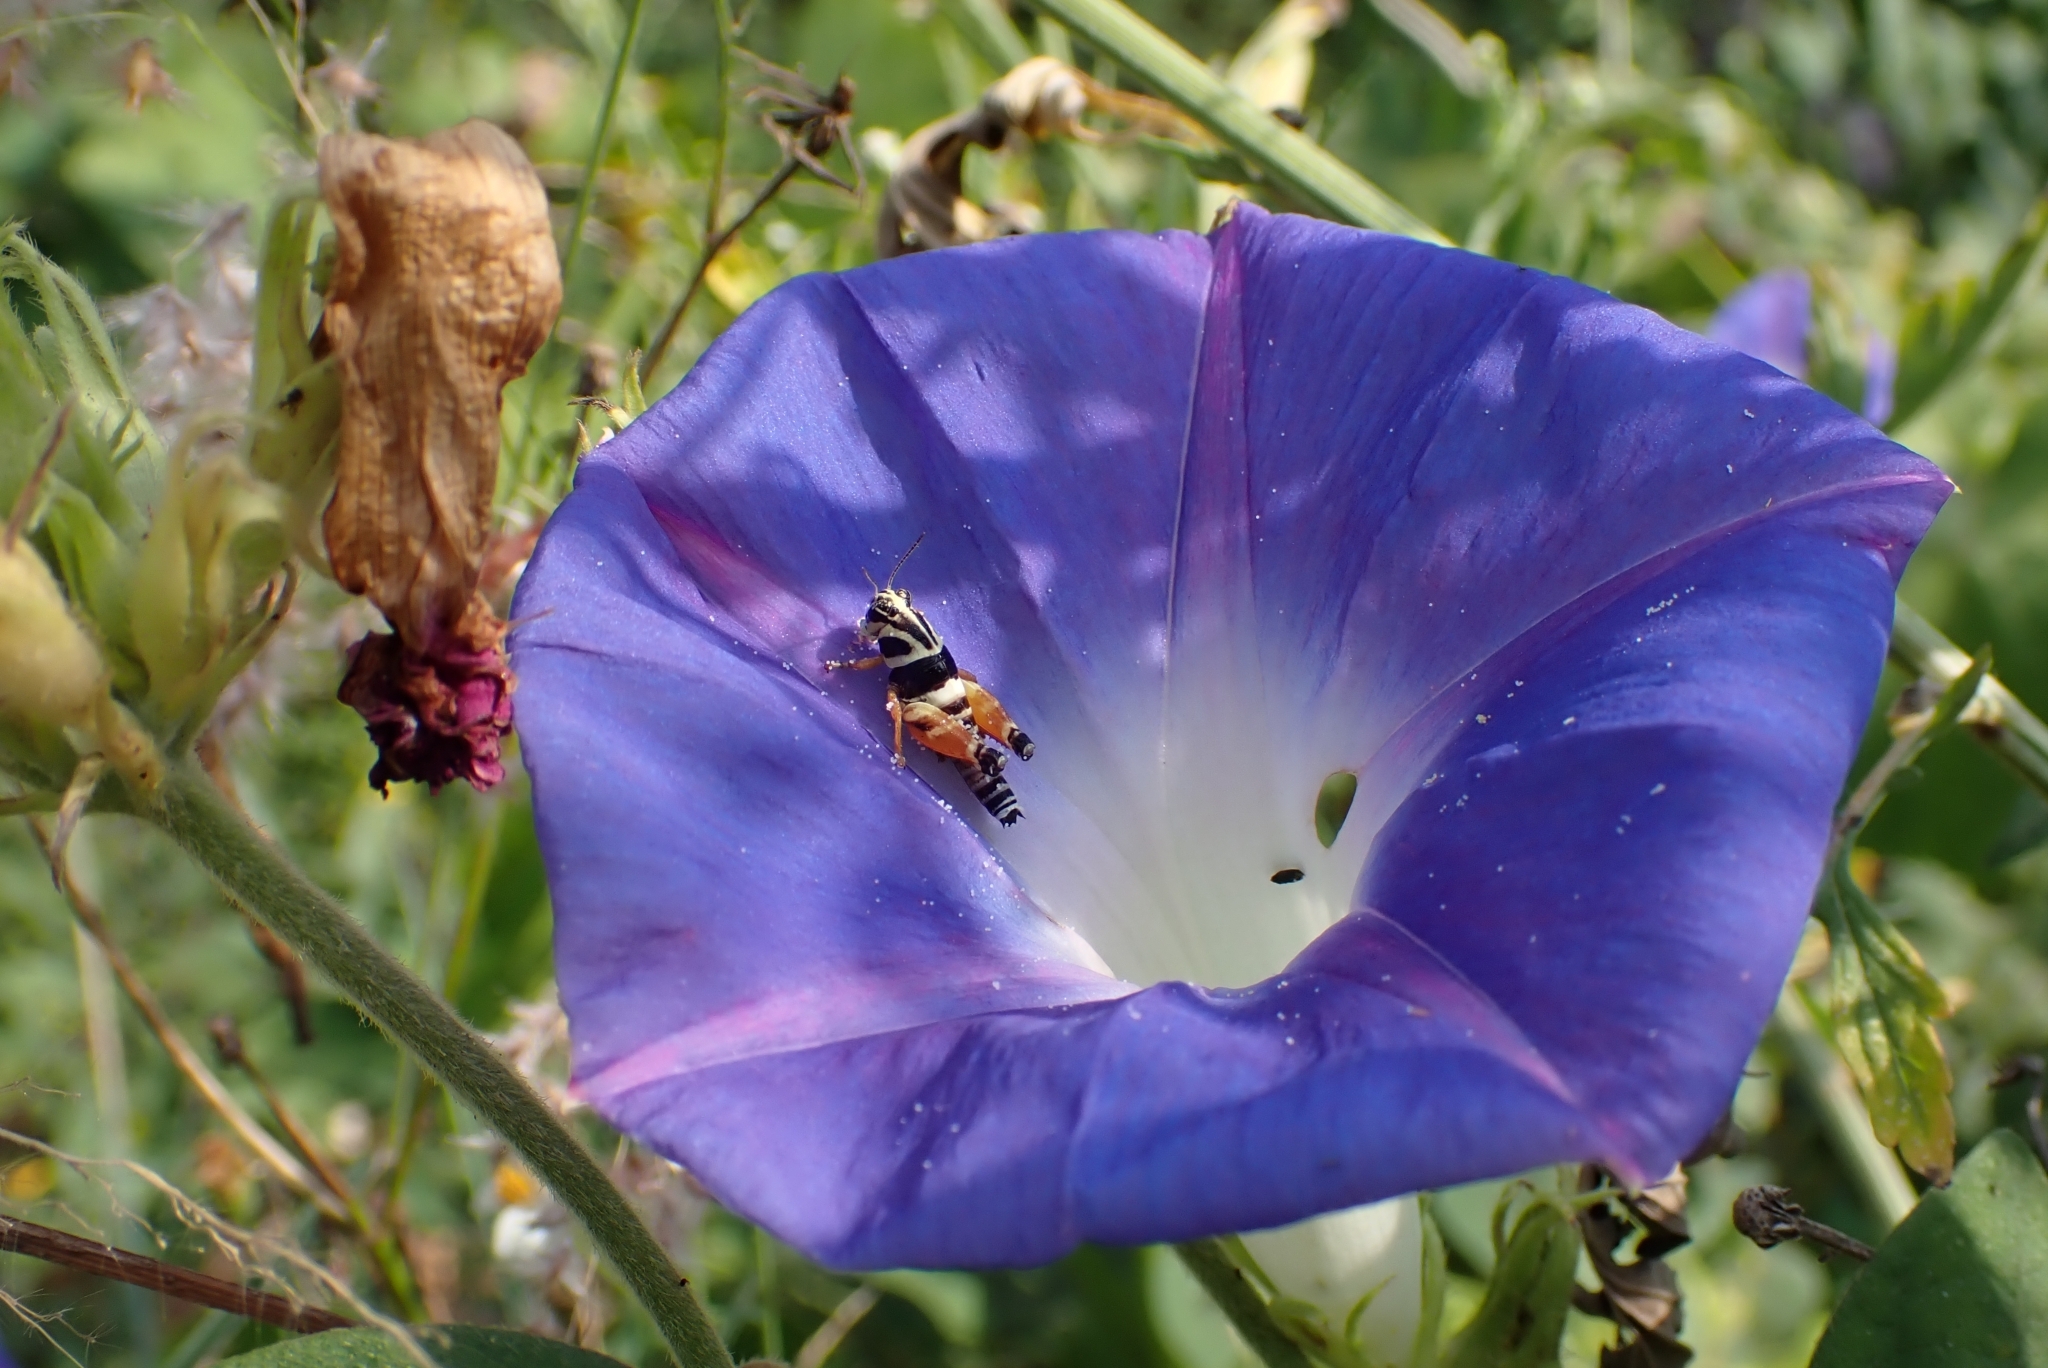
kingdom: Plantae
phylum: Tracheophyta
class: Magnoliopsida
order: Solanales
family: Convolvulaceae
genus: Ipomoea
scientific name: Ipomoea indica
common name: Blue dawnflower
